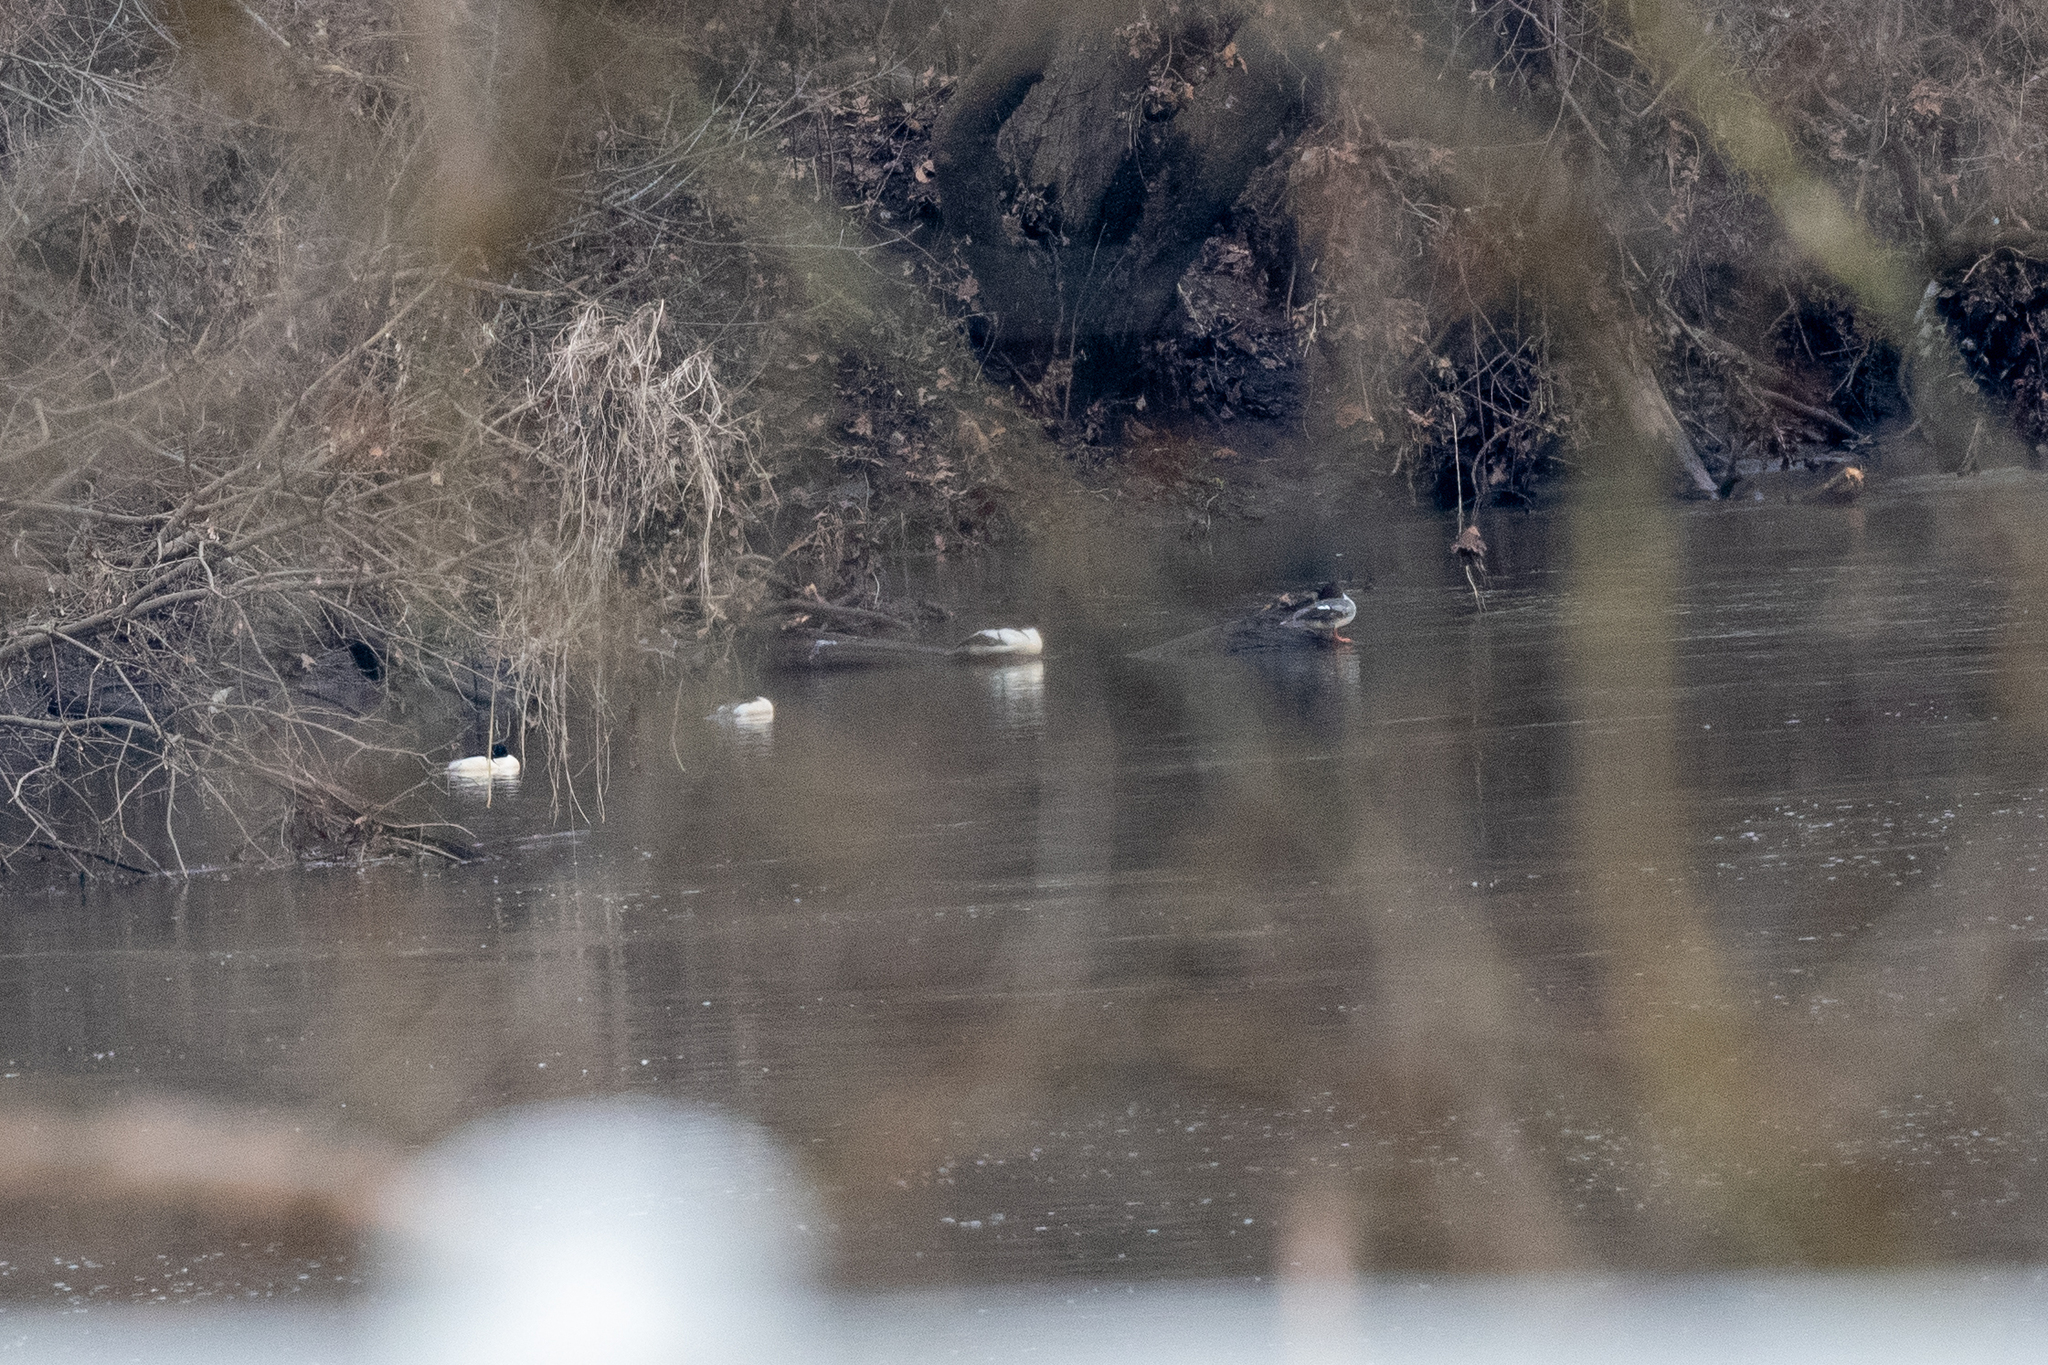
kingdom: Animalia
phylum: Chordata
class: Aves
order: Anseriformes
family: Anatidae
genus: Mergus
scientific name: Mergus merganser
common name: Common merganser
